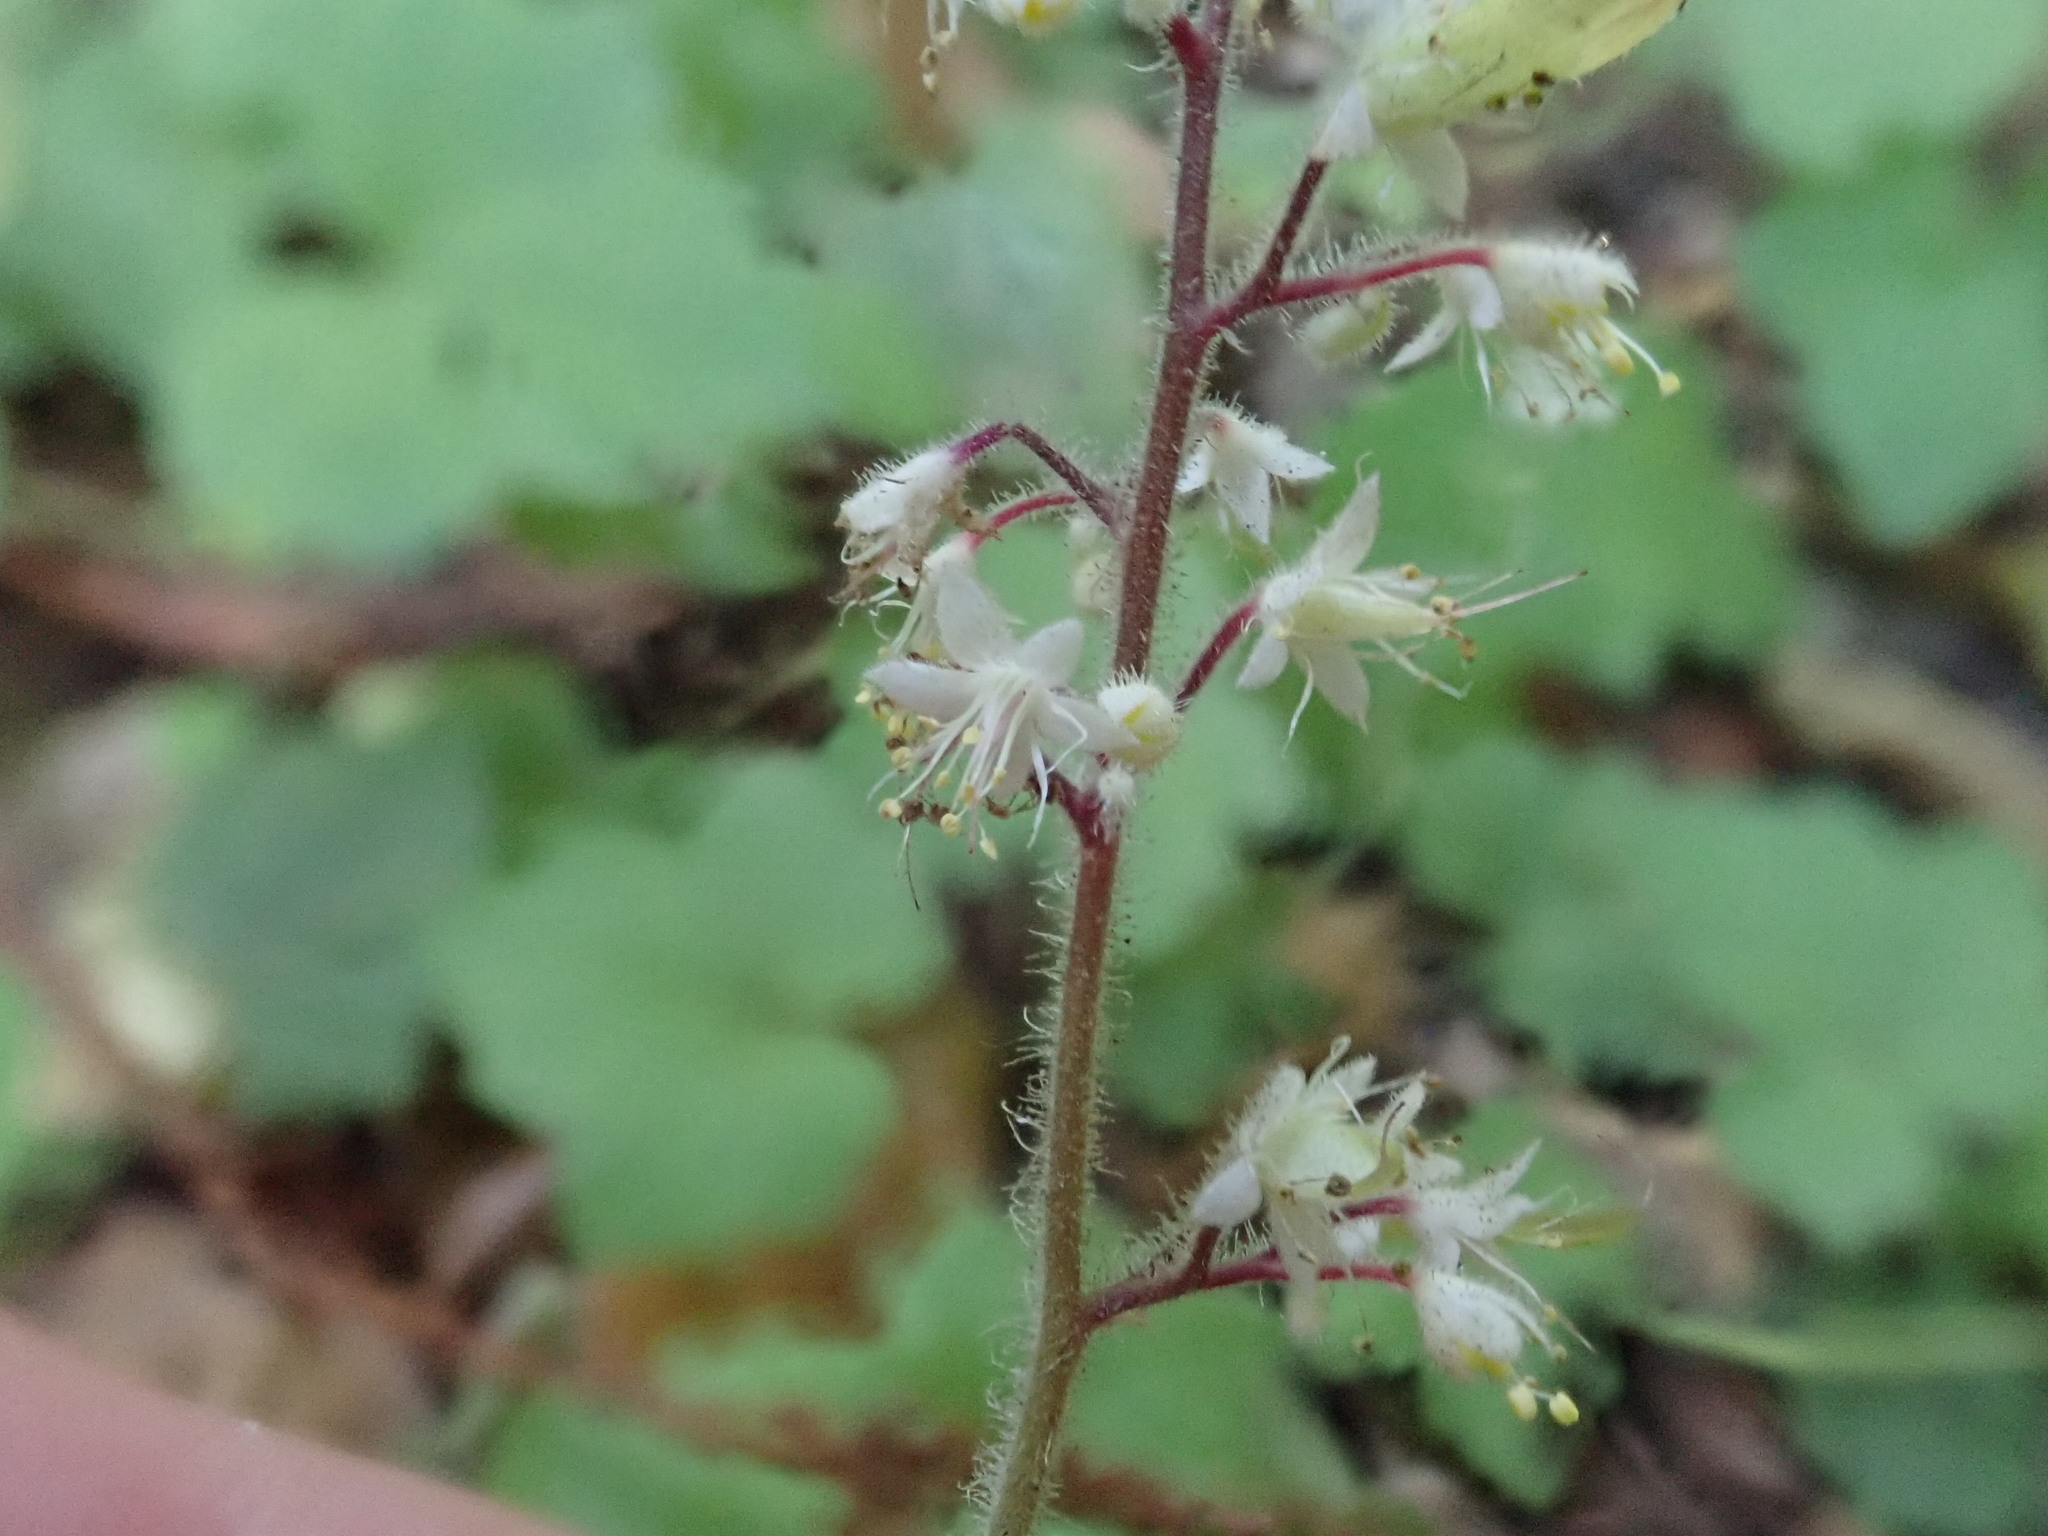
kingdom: Plantae
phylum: Tracheophyta
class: Magnoliopsida
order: Saxifragales
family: Saxifragaceae
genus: Tiarella
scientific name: Tiarella trifoliata
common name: Sugar-scoop
